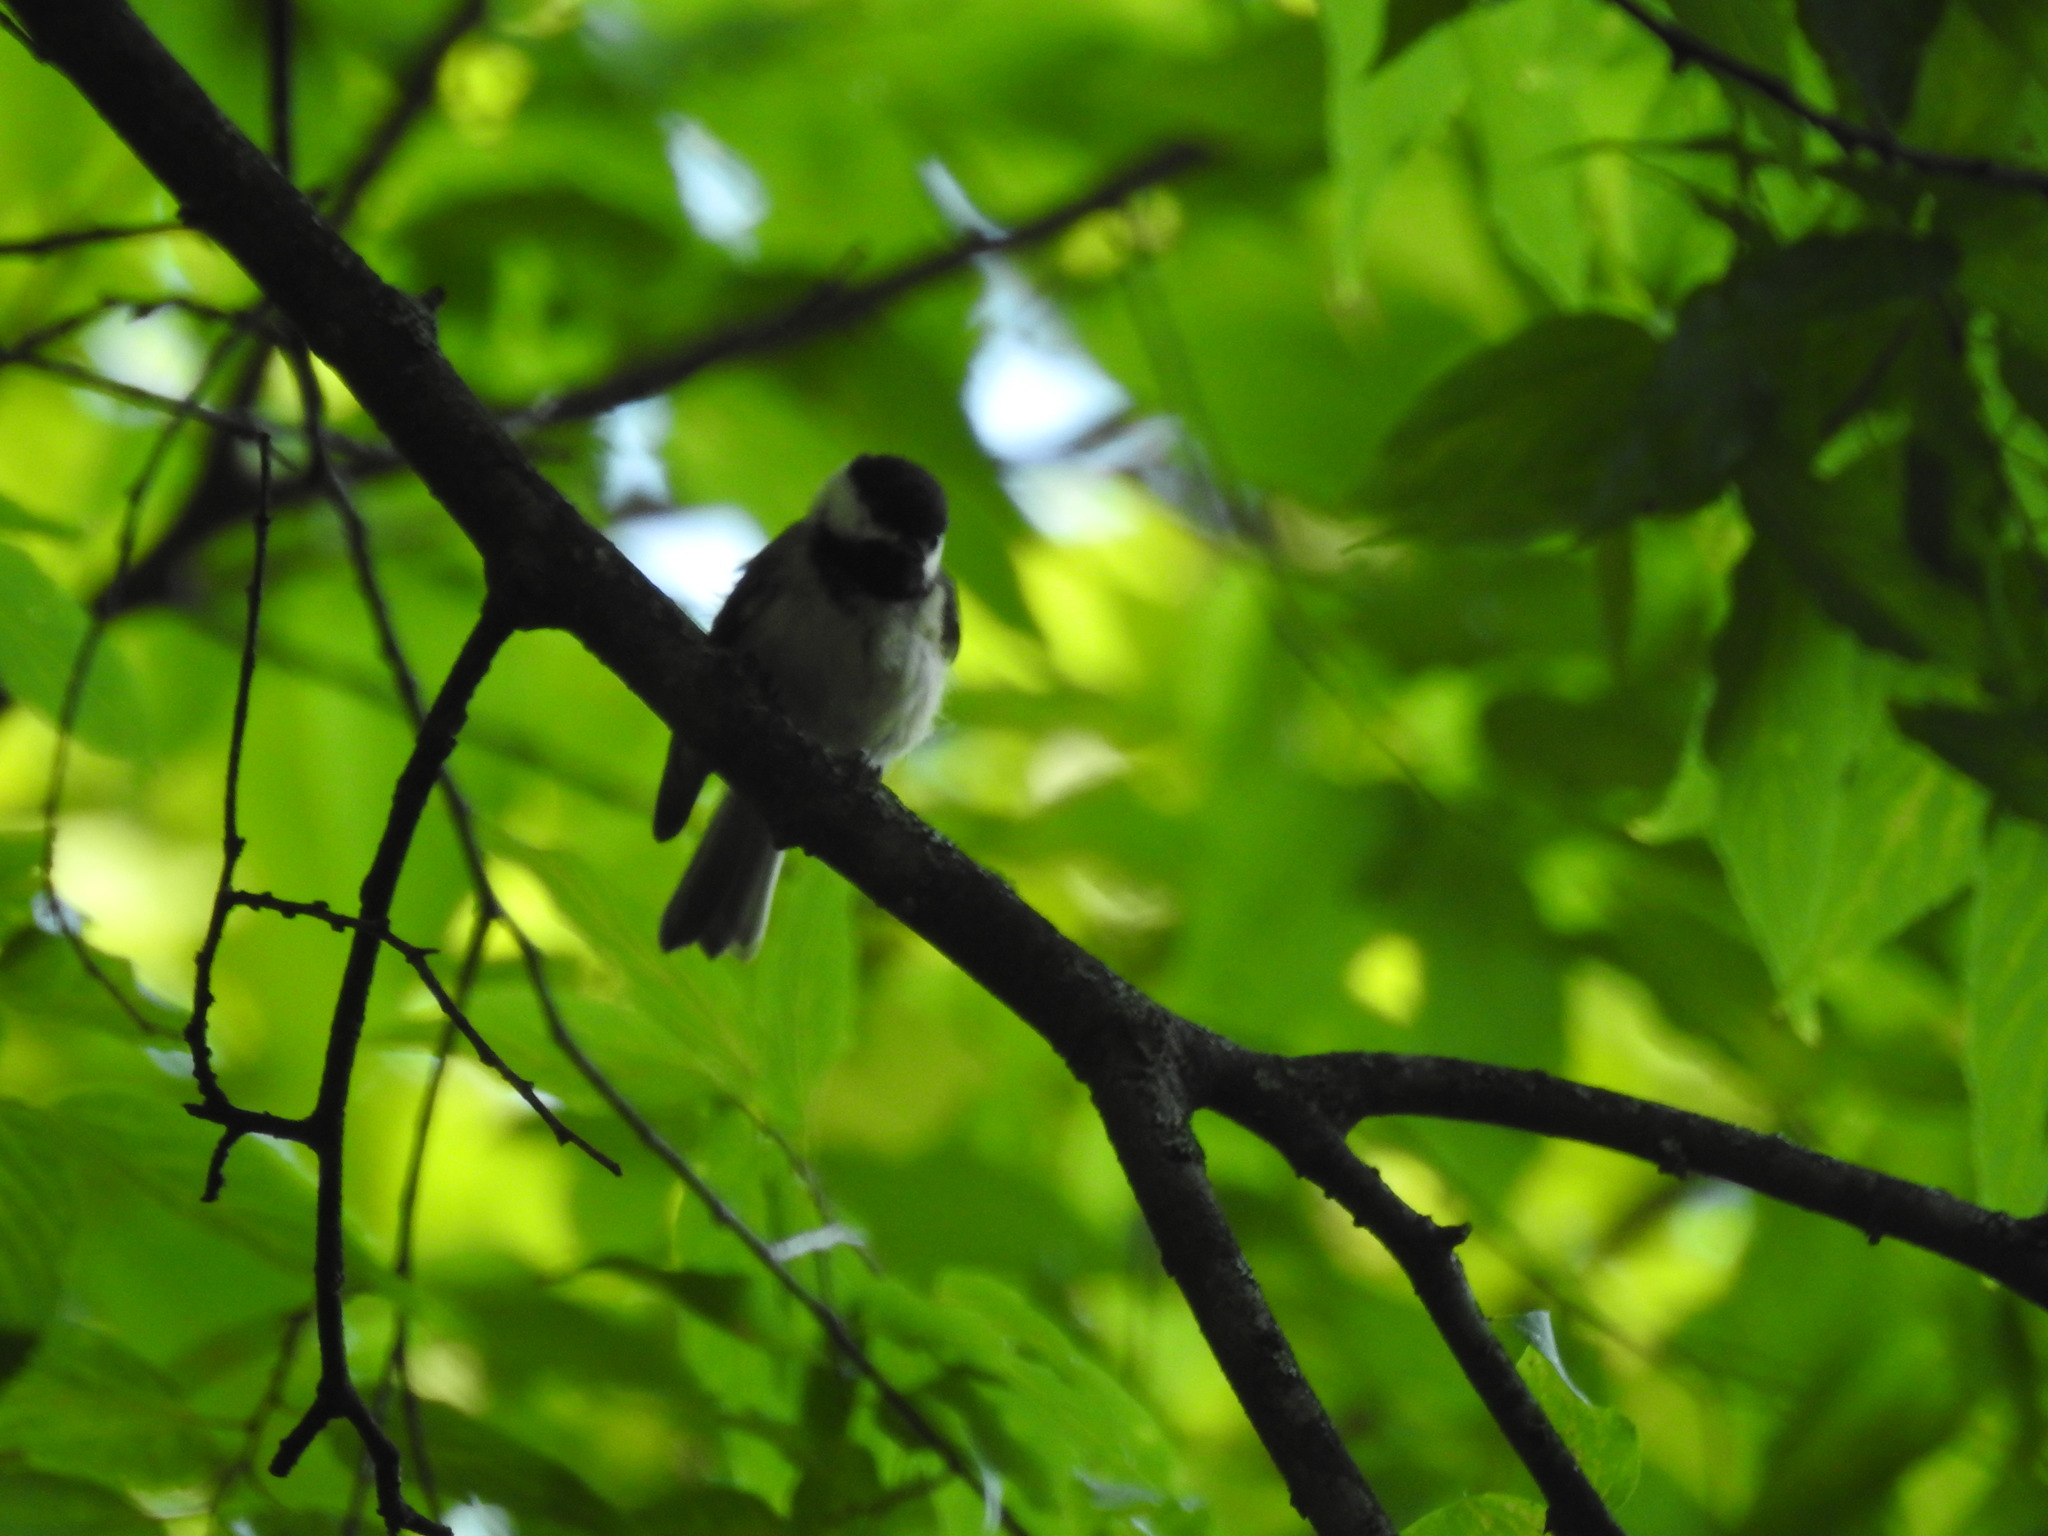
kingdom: Animalia
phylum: Chordata
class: Aves
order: Passeriformes
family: Paridae
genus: Poecile
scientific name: Poecile carolinensis
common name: Carolina chickadee
